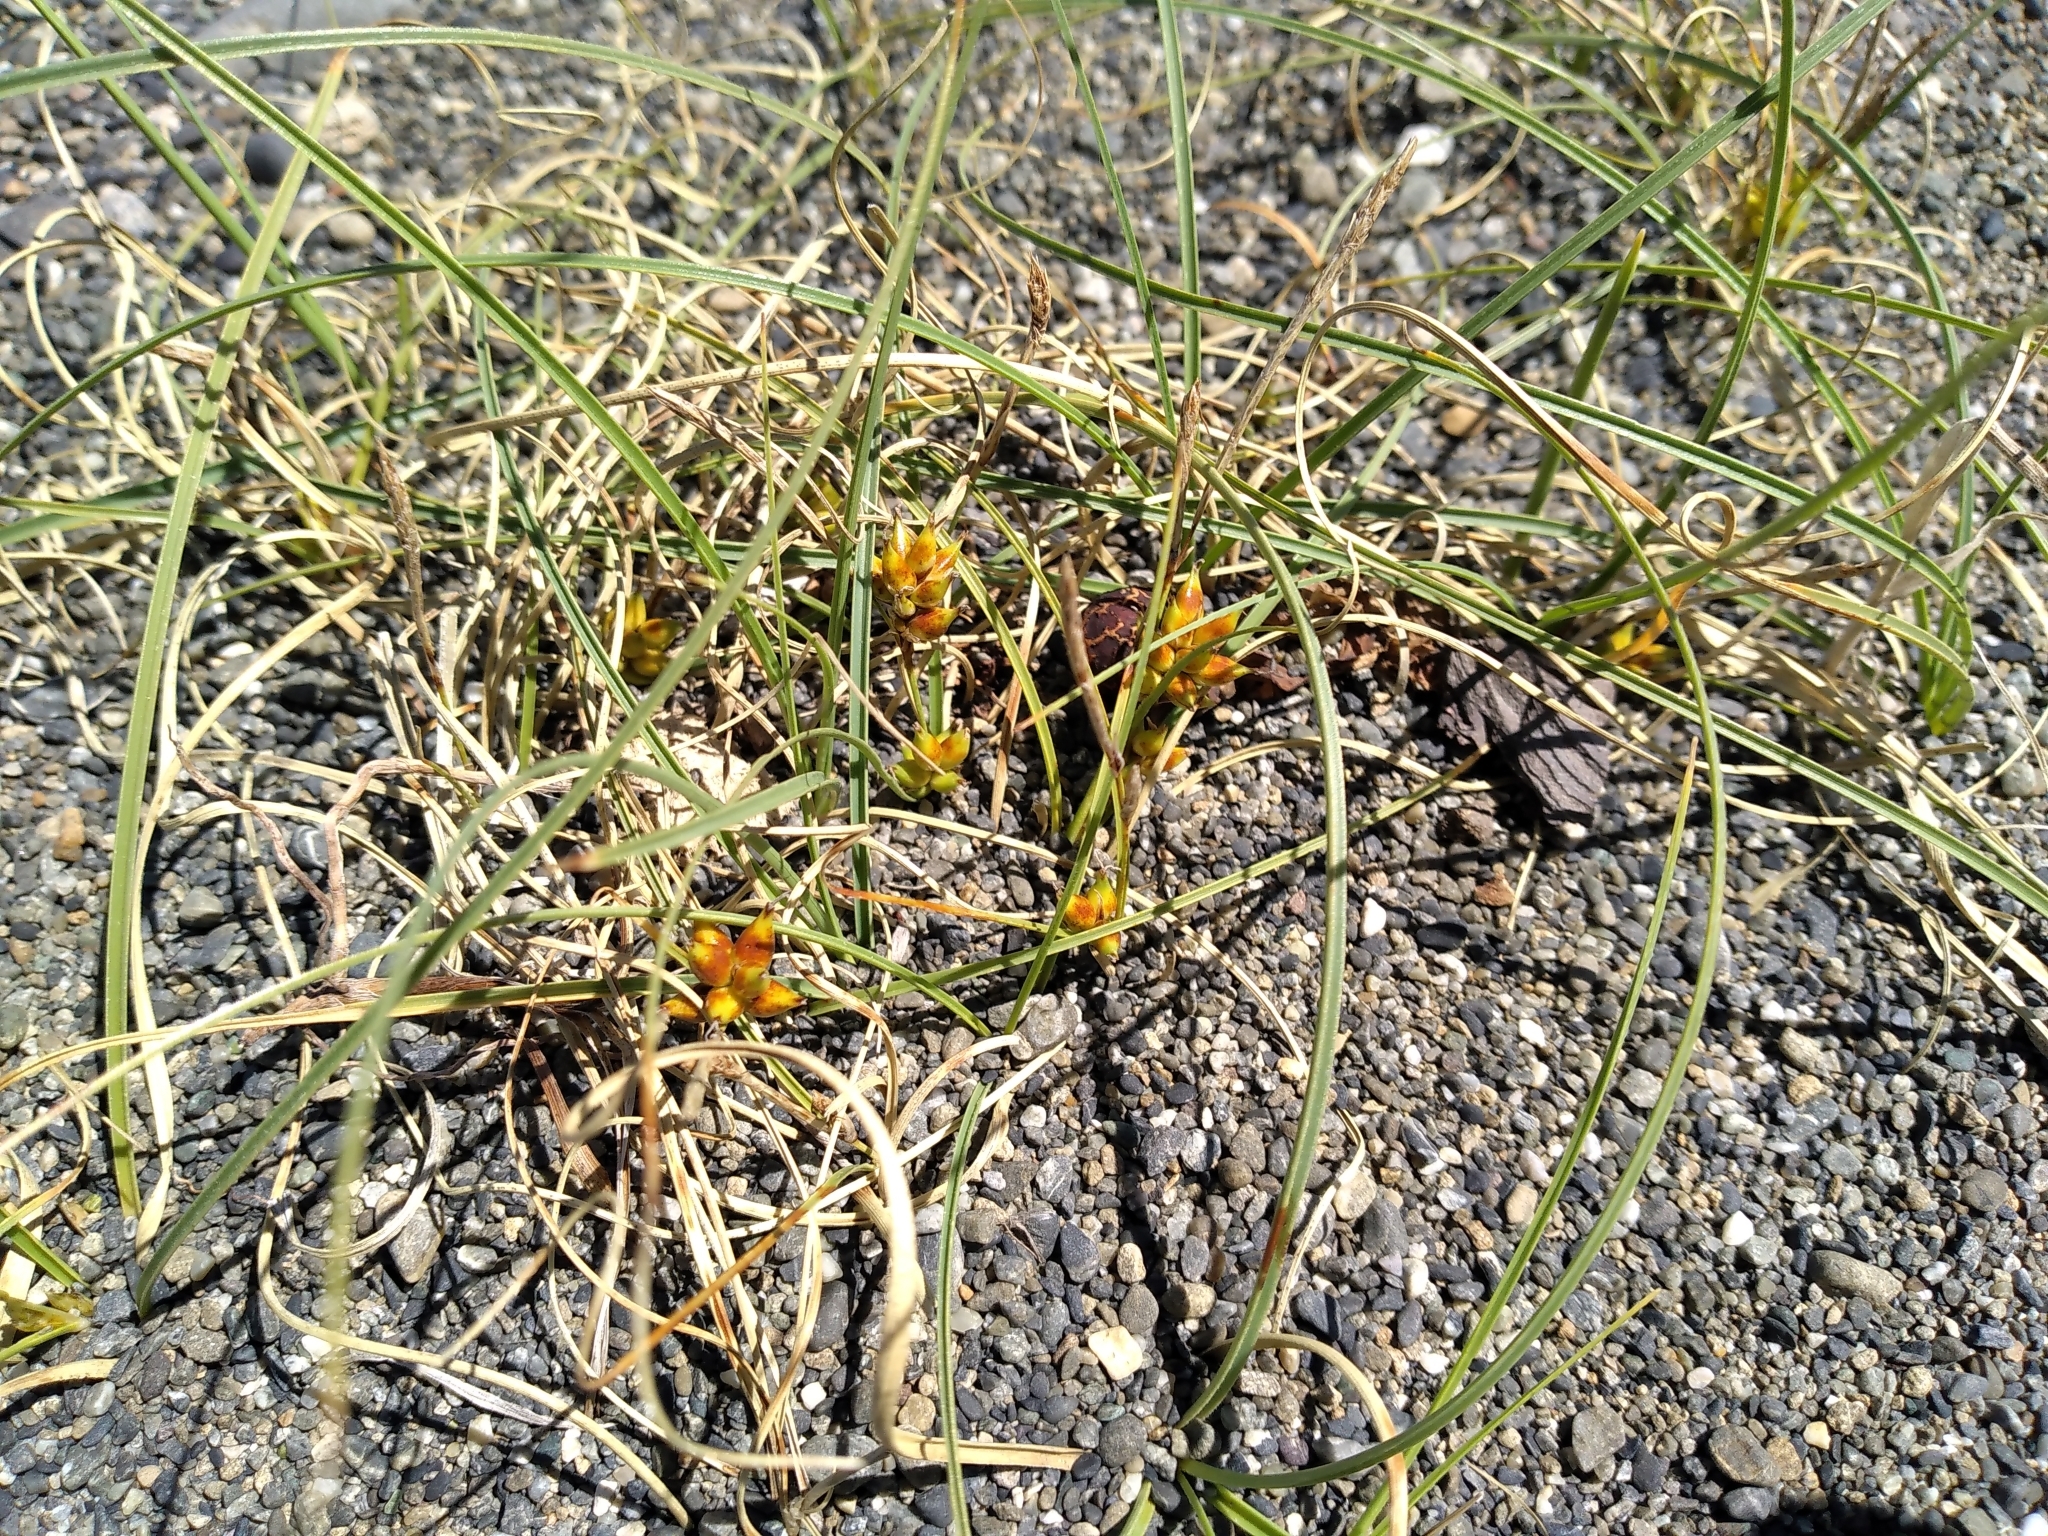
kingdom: Plantae
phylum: Tracheophyta
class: Liliopsida
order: Poales
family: Cyperaceae
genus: Carex
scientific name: Carex pumila
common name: Dwarf sedge
